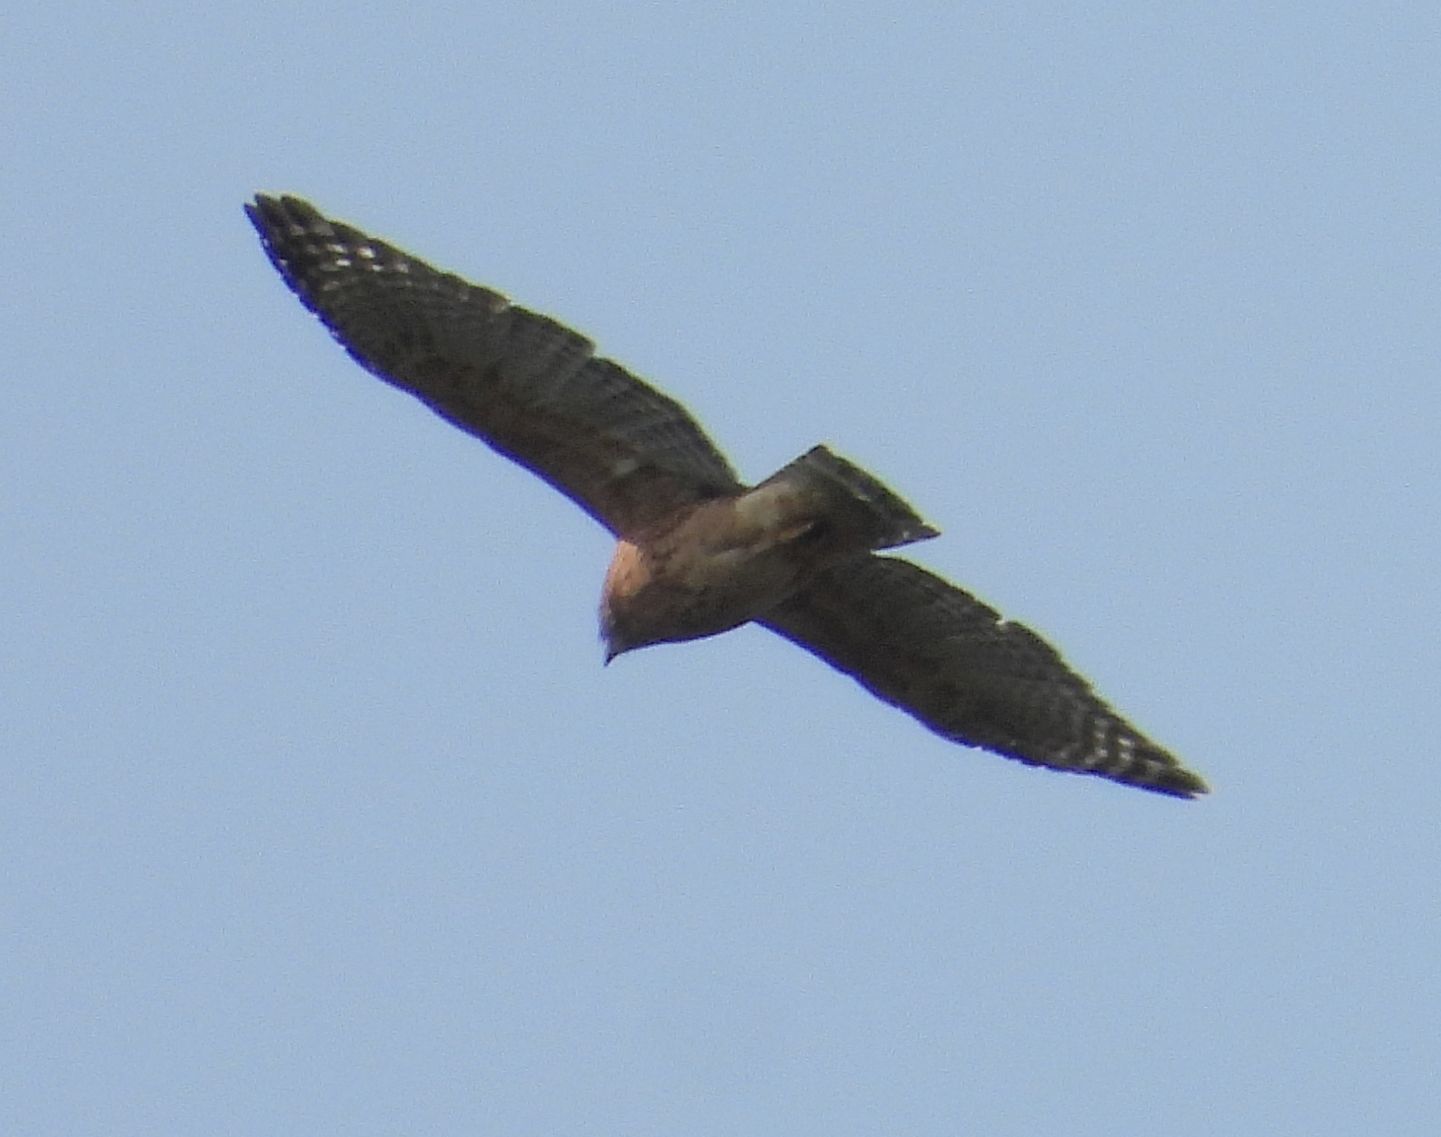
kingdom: Animalia
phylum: Chordata
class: Aves
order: Accipitriformes
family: Accipitridae
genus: Buteo
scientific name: Buteo lineatus
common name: Red-shouldered hawk
